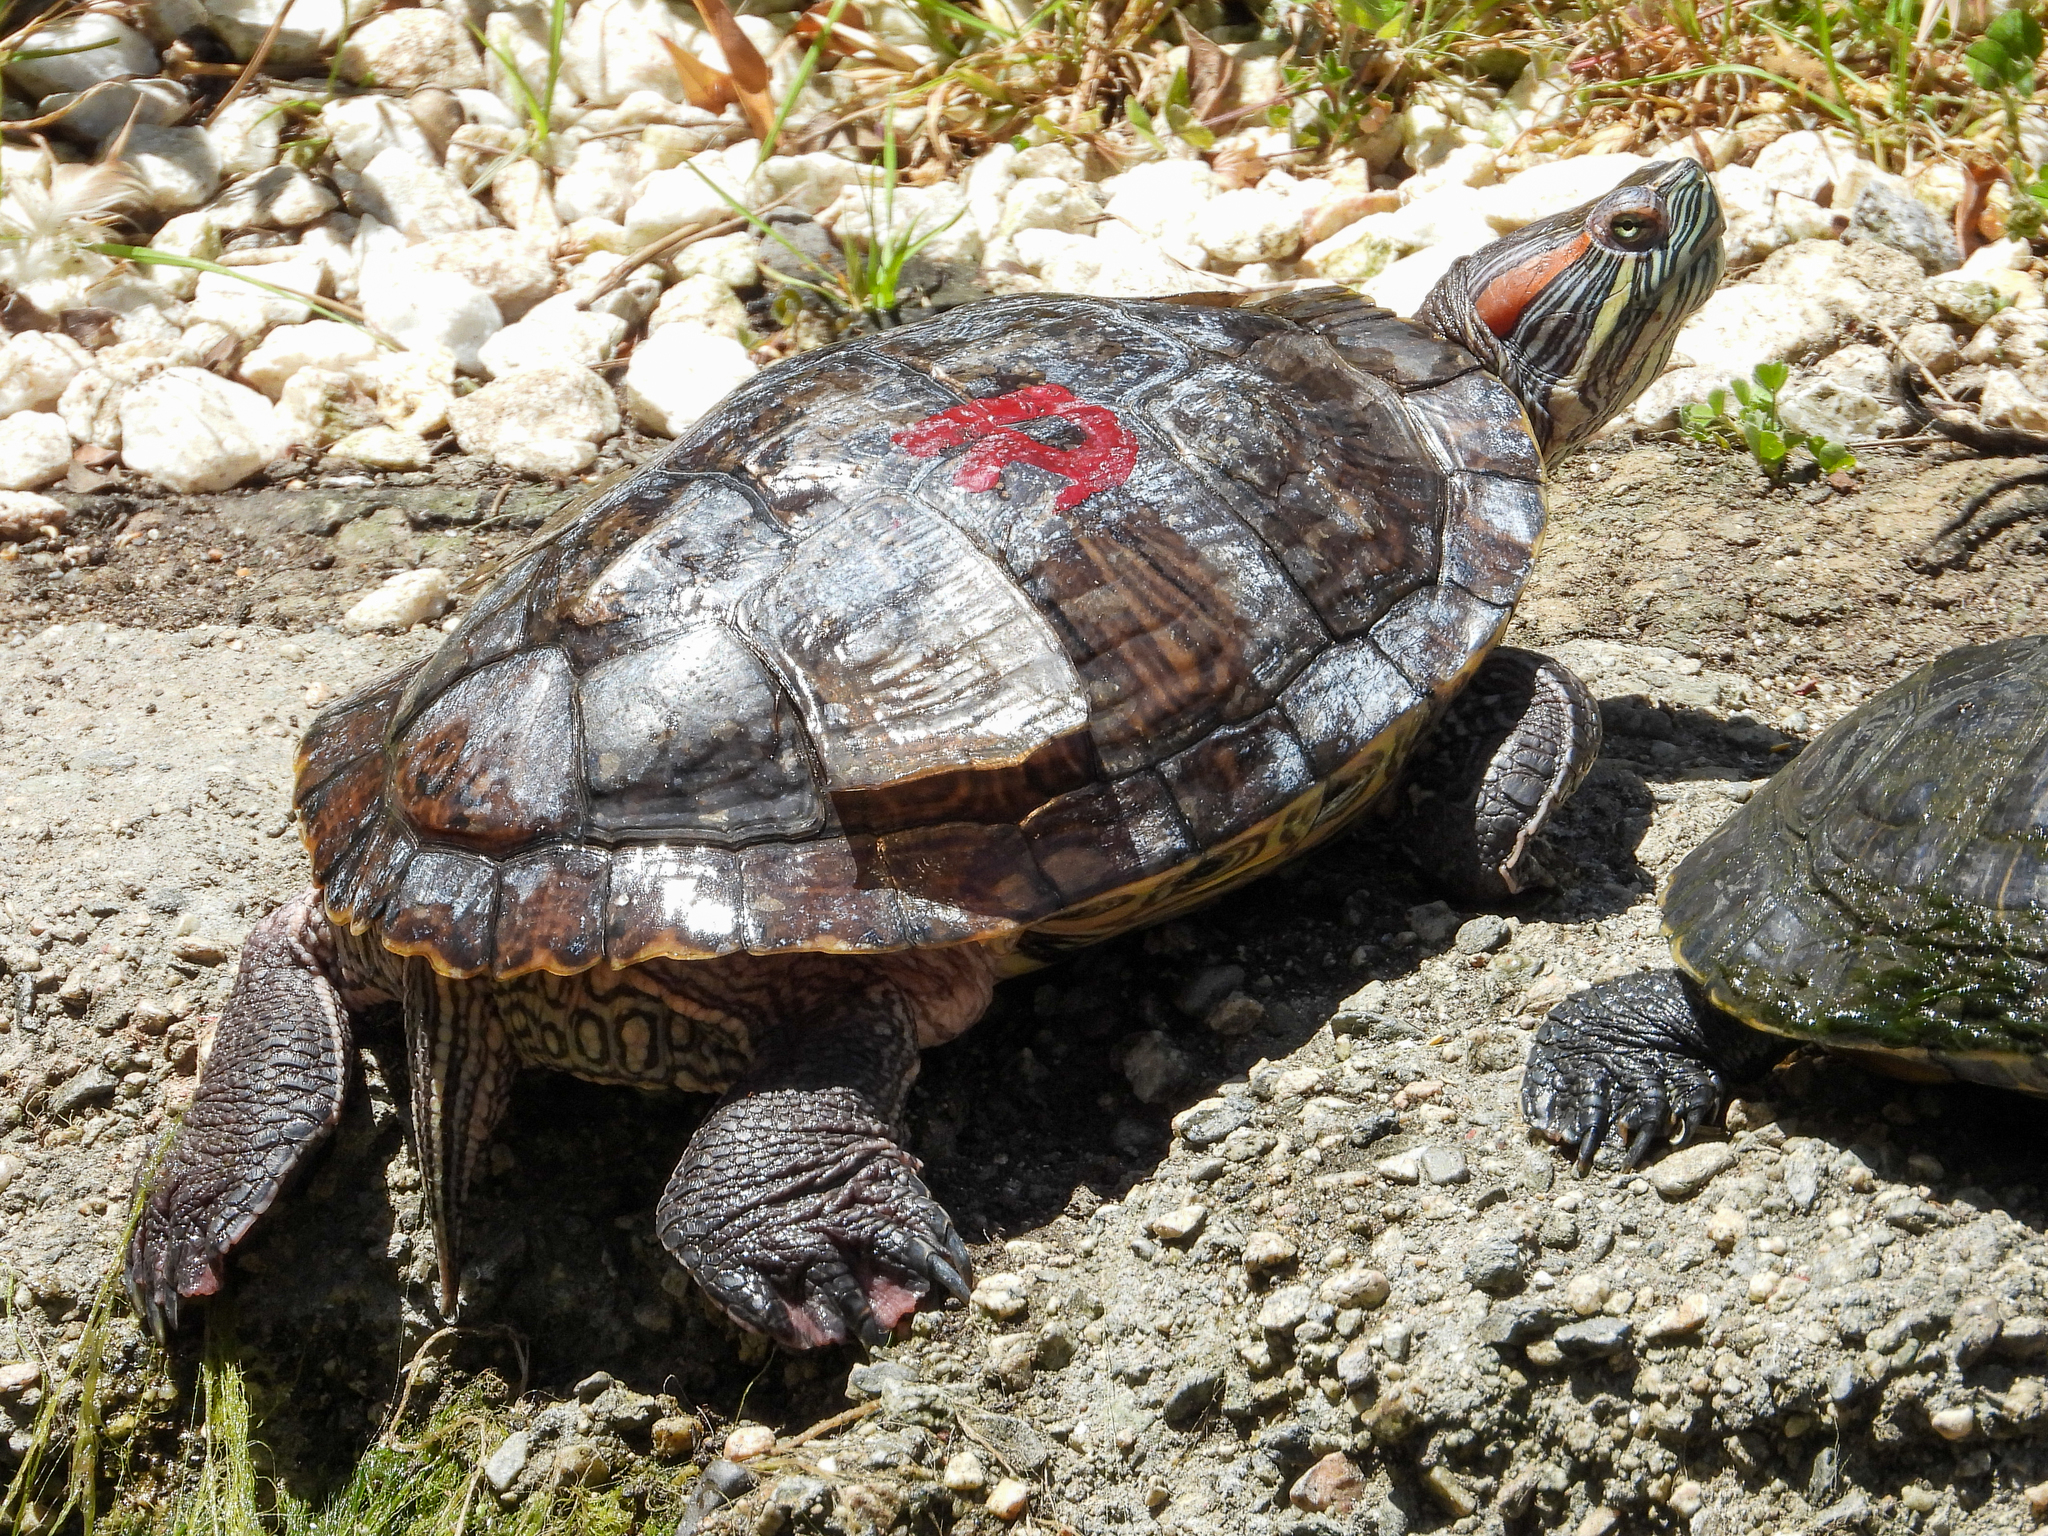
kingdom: Animalia
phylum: Chordata
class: Testudines
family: Emydidae
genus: Trachemys
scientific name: Trachemys scripta
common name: Slider
